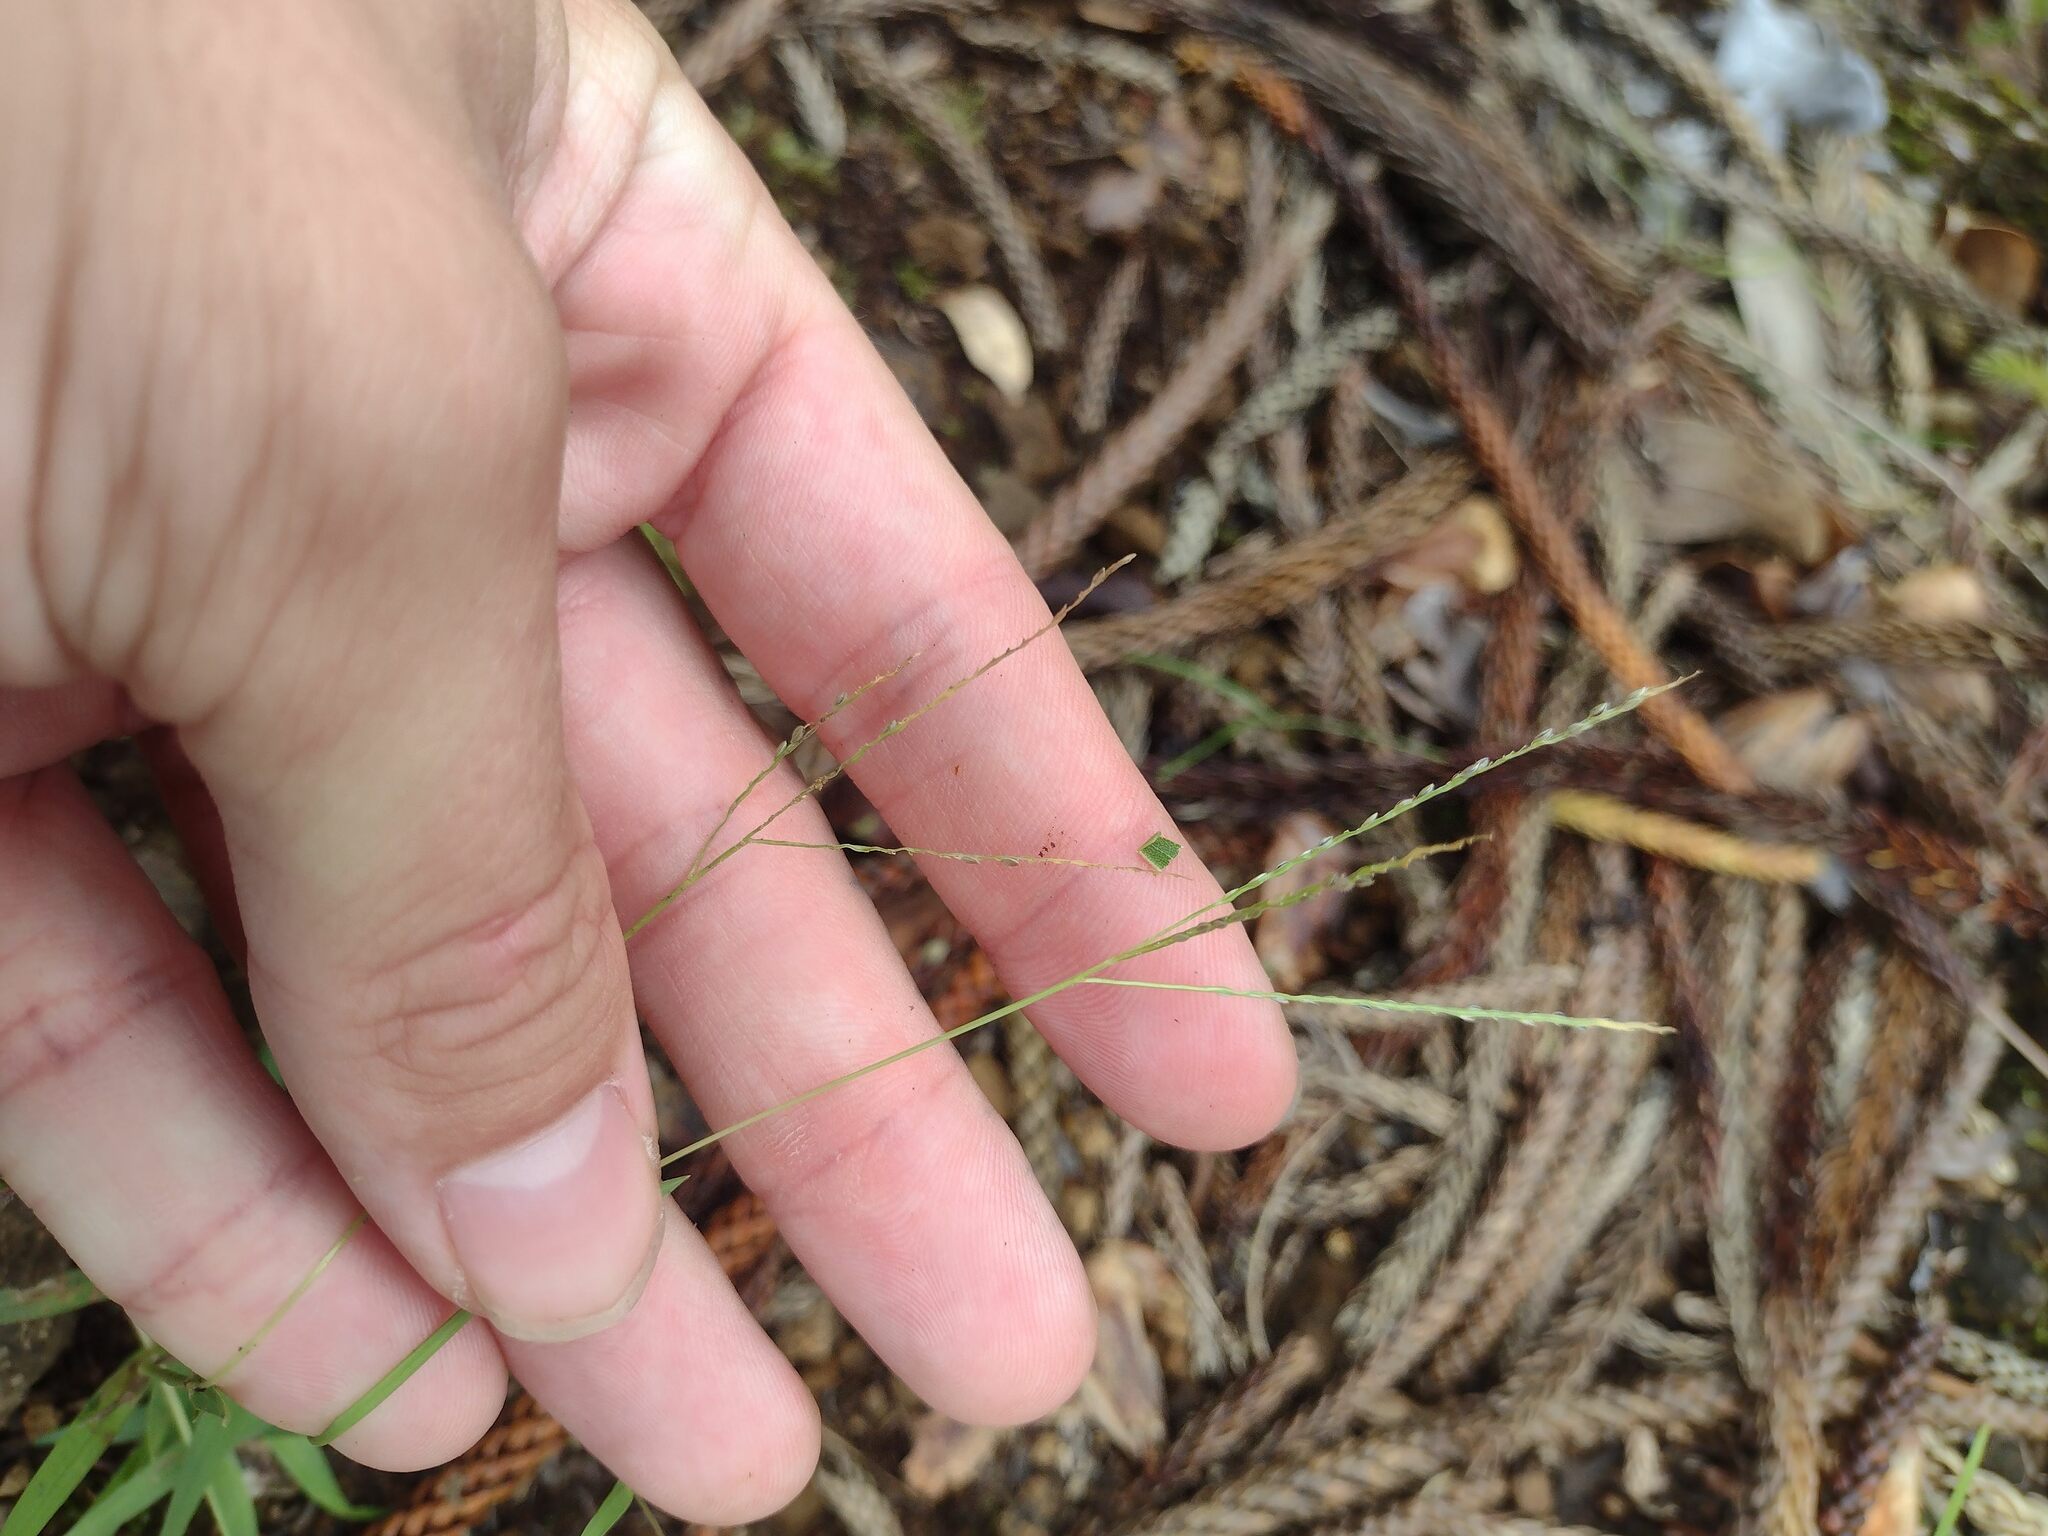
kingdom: Plantae
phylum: Tracheophyta
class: Liliopsida
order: Poales
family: Poaceae
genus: Digitaria
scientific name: Digitaria violascens
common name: Violet crabgrass
